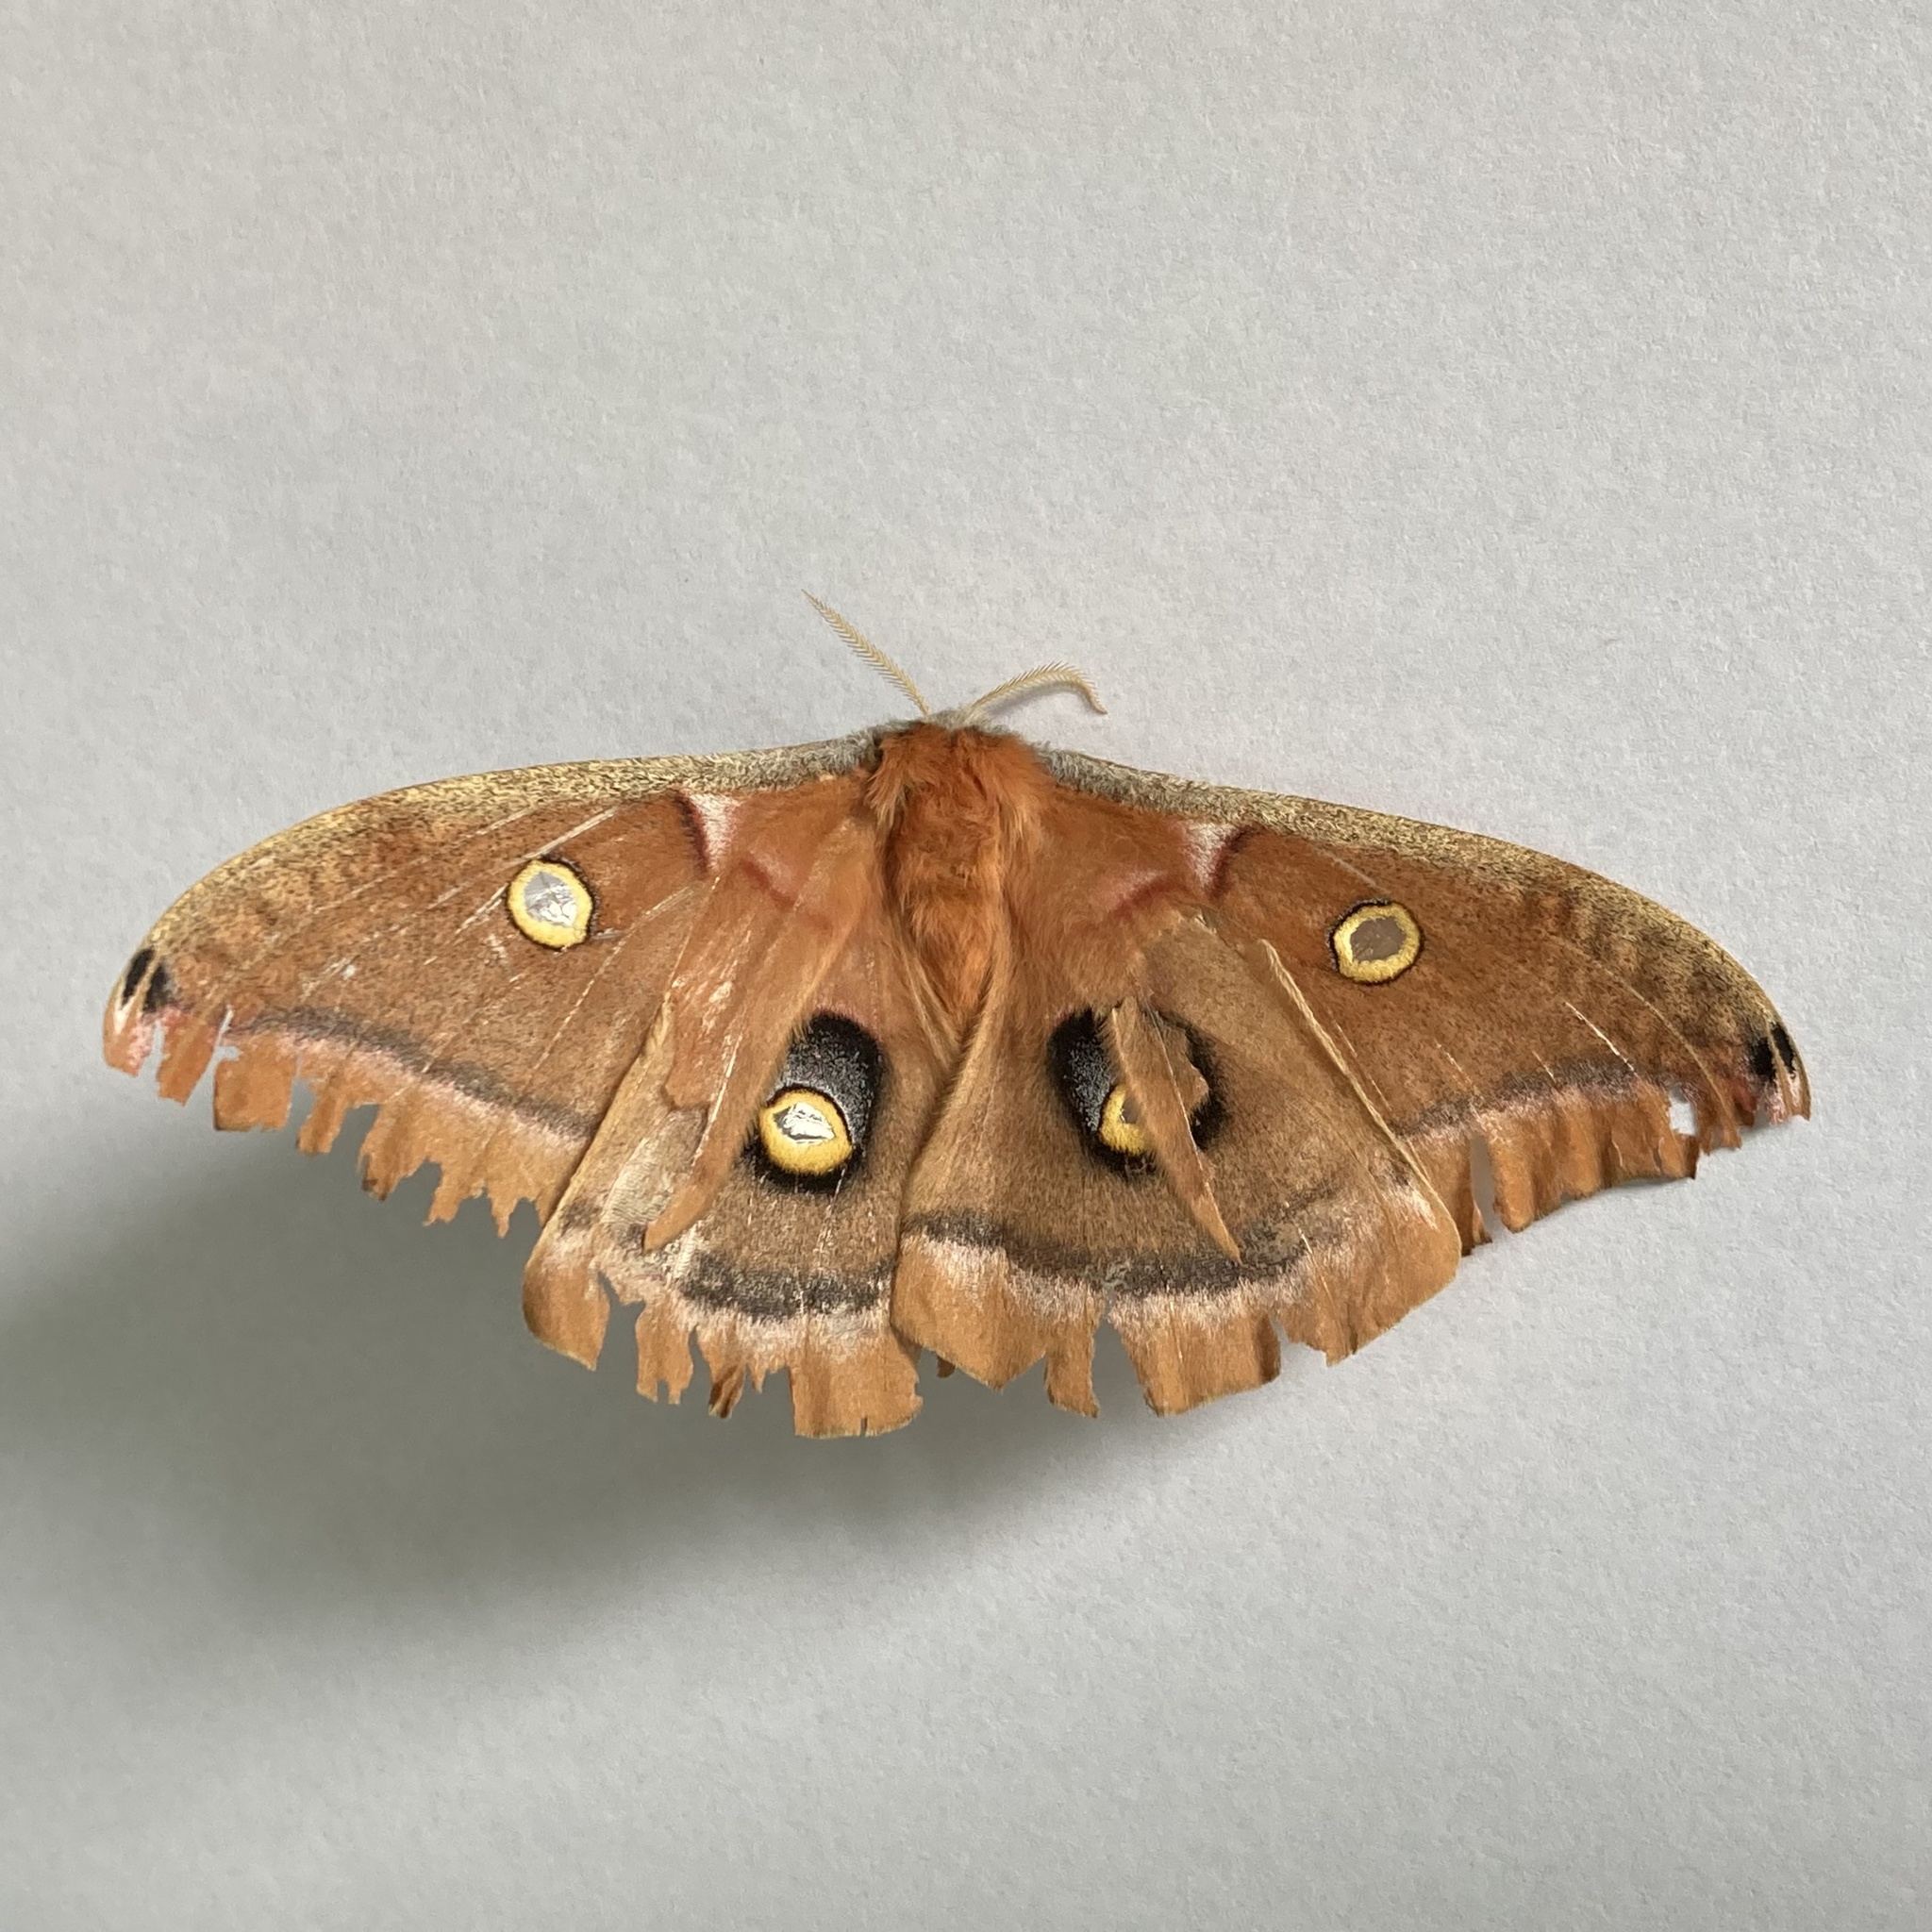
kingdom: Animalia
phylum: Arthropoda
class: Insecta
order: Lepidoptera
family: Saturniidae
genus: Antheraea
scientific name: Antheraea polyphemus
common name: Polyphemus moth
